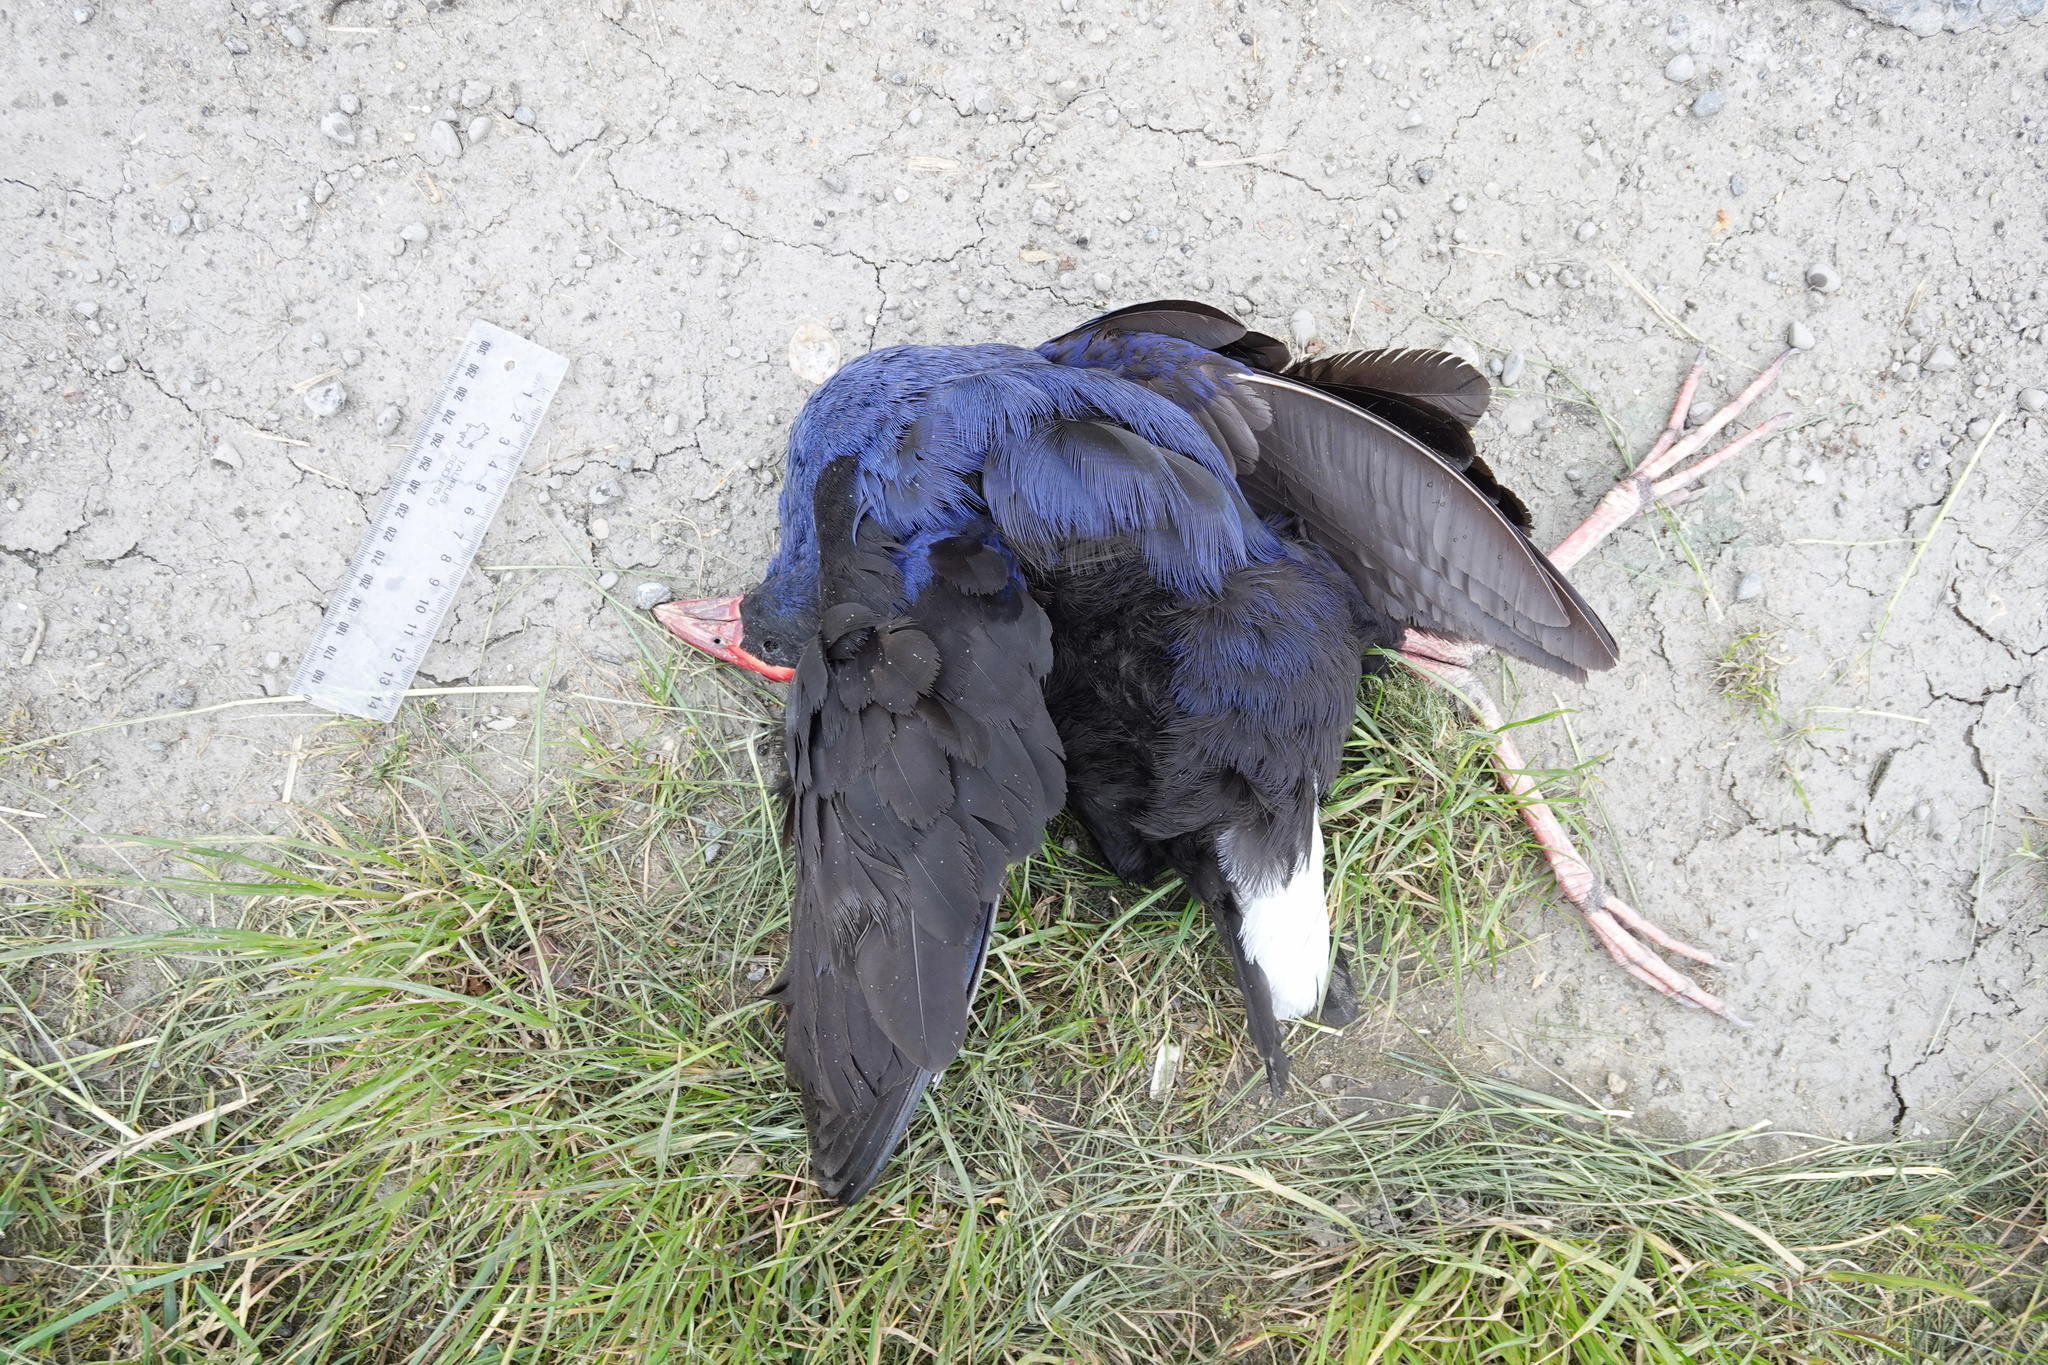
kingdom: Animalia
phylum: Chordata
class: Aves
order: Gruiformes
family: Rallidae
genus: Porphyrio
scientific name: Porphyrio melanotus
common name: Australasian swamphen
